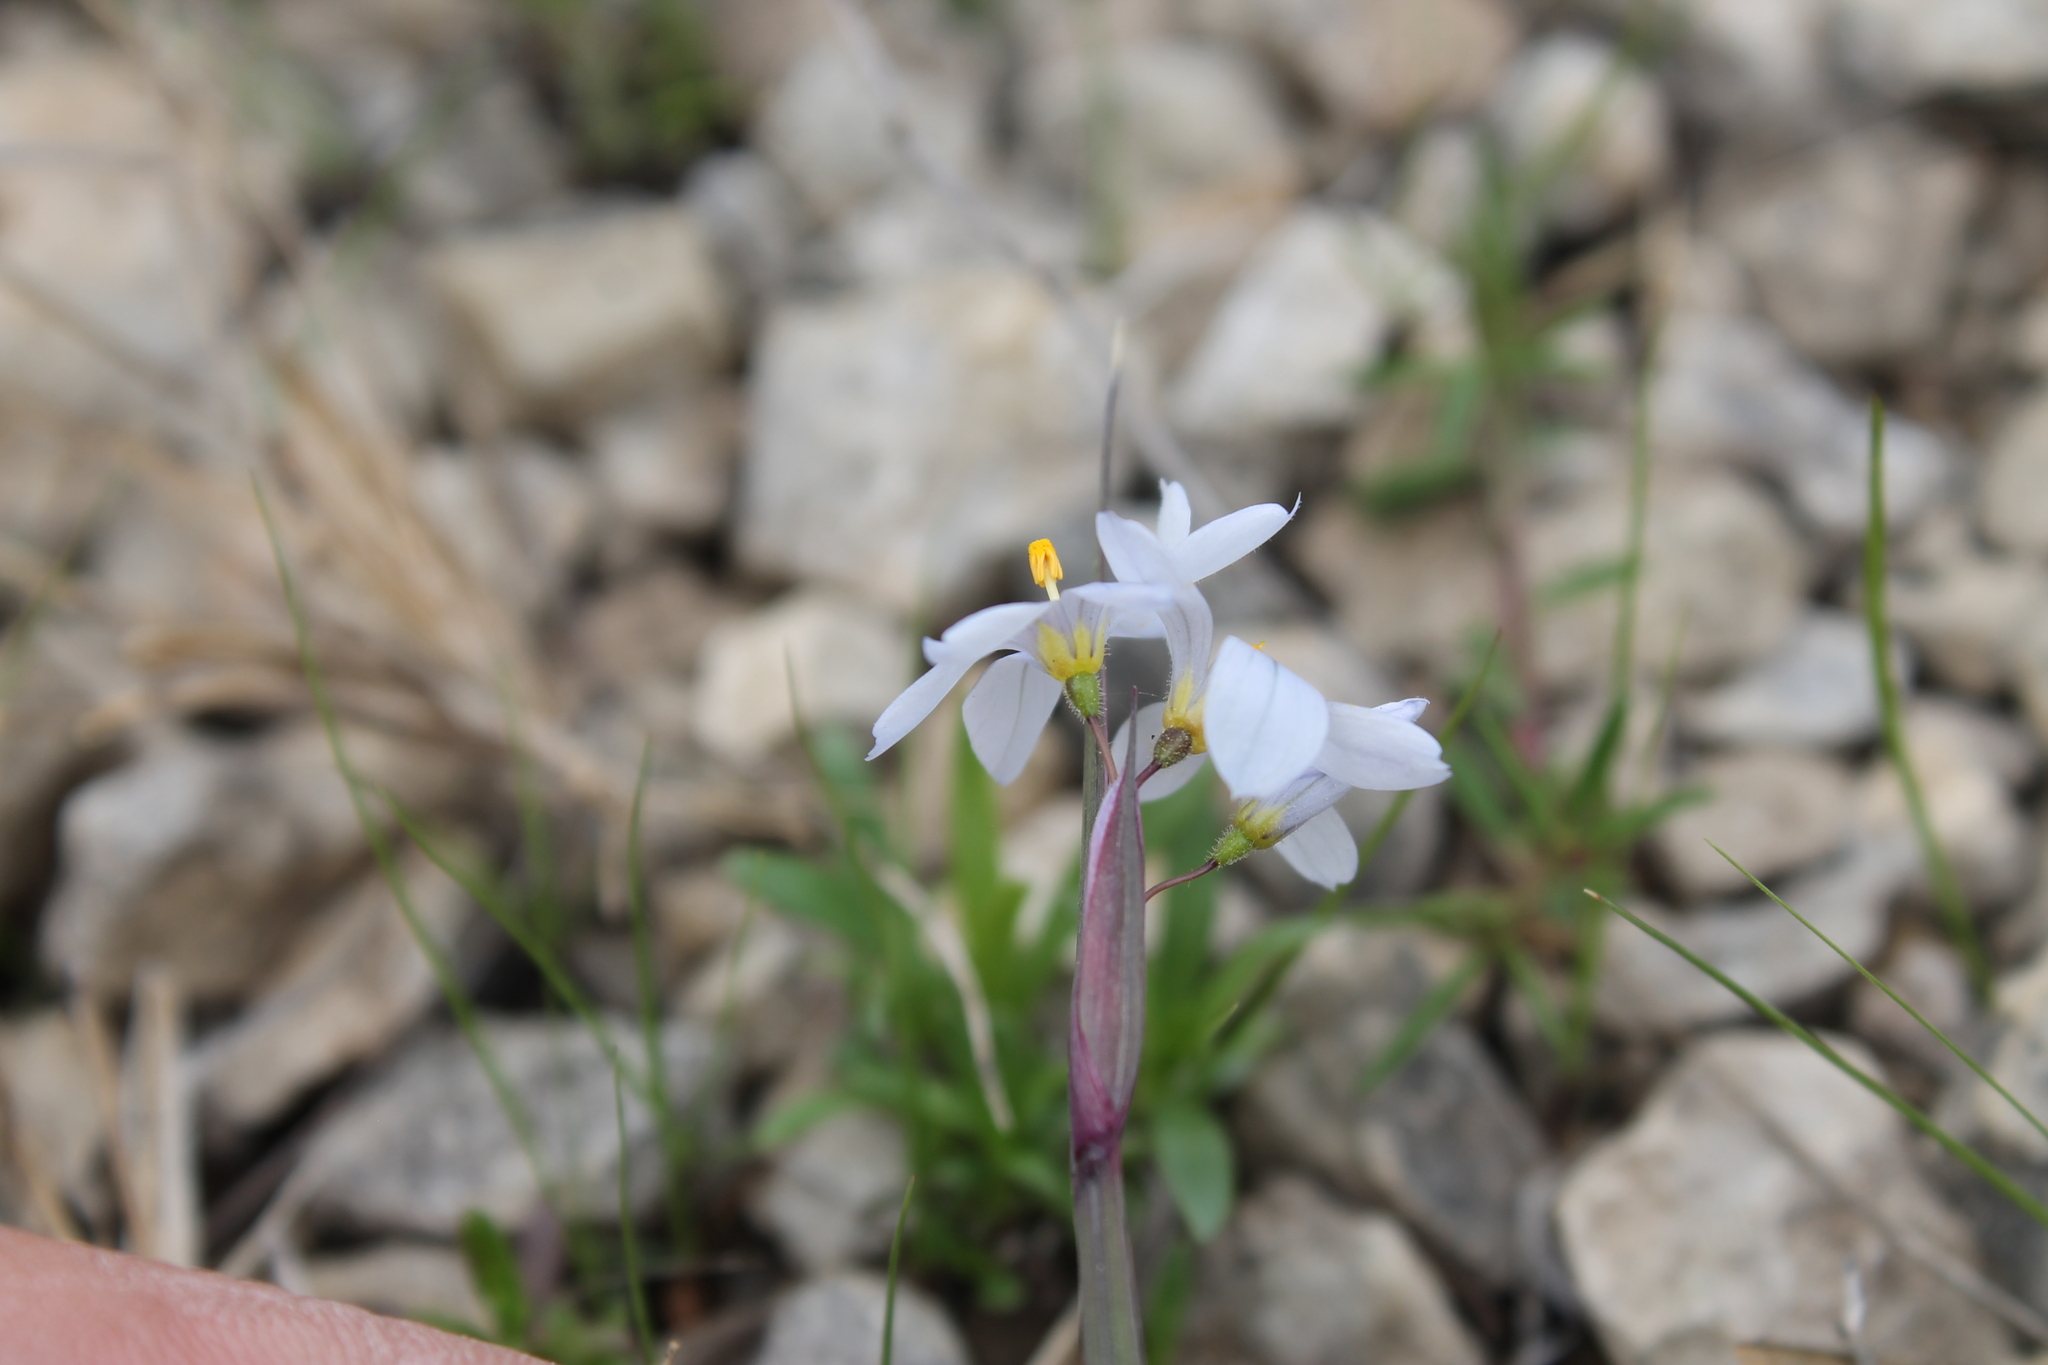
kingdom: Plantae
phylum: Tracheophyta
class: Liliopsida
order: Asparagales
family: Iridaceae
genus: Sisyrinchium
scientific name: Sisyrinchium albidum
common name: Pale blue-eyed-grass
